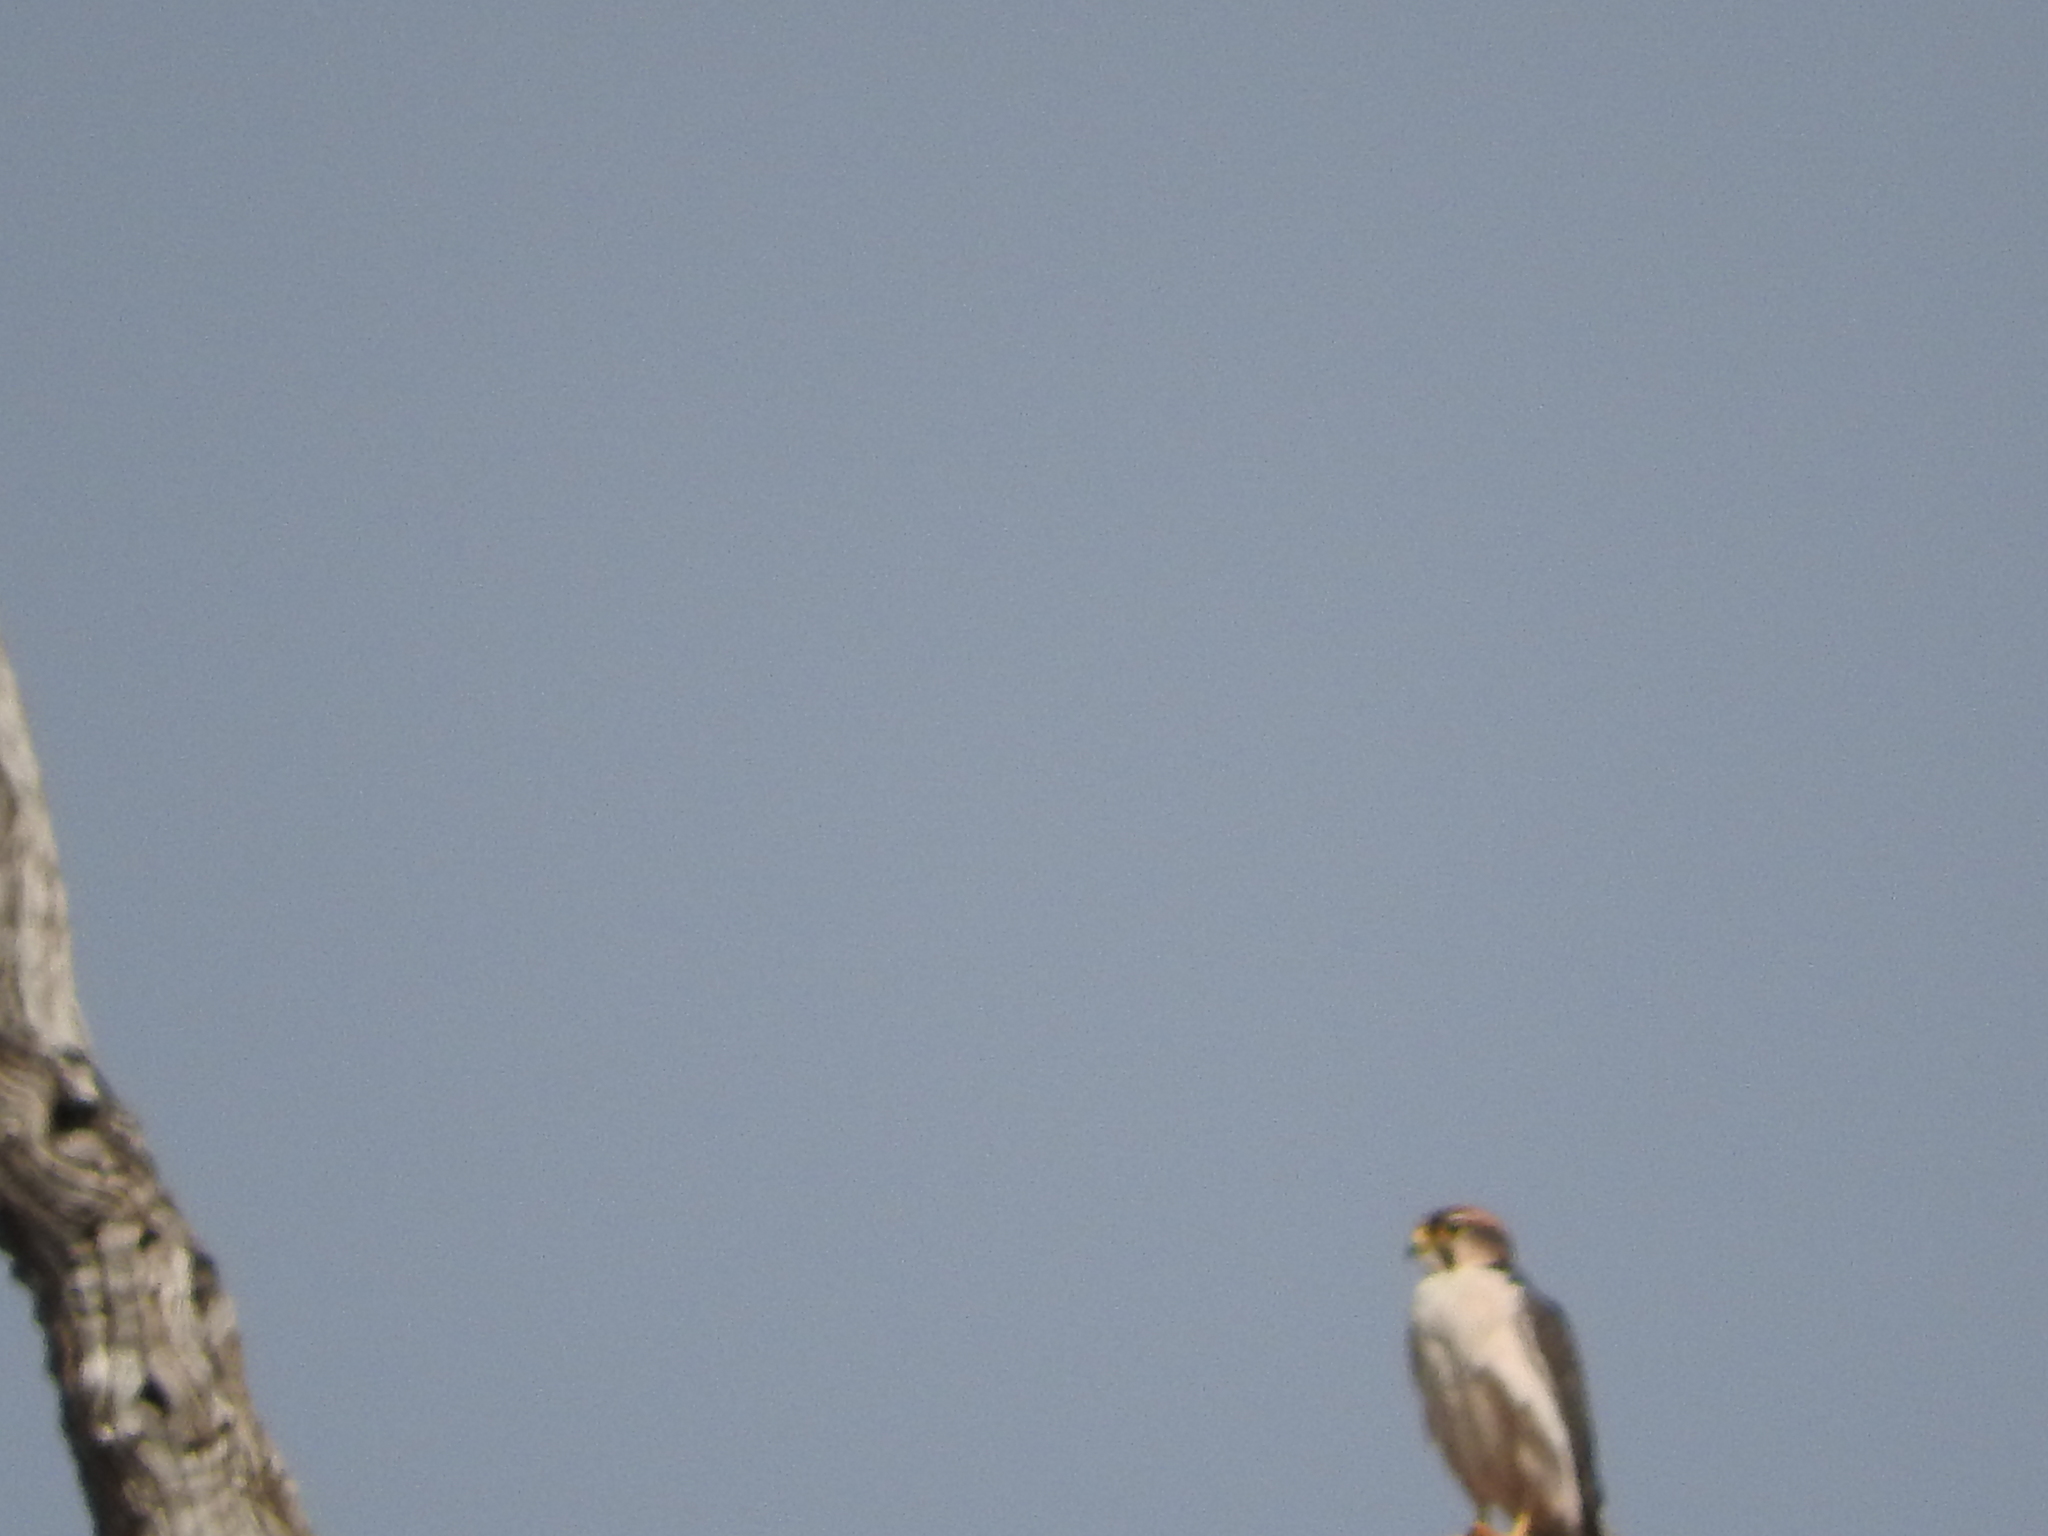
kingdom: Animalia
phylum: Chordata
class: Aves
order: Falconiformes
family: Falconidae
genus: Falco
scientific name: Falco biarmicus
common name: Lanner falcon
